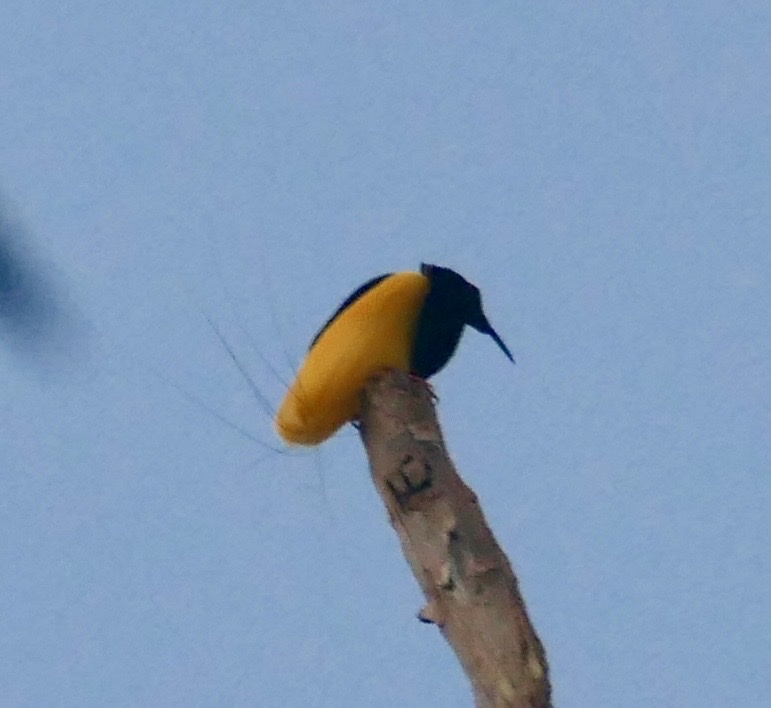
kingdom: Animalia
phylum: Chordata
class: Aves
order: Passeriformes
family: Paradisaeidae
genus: Seleucidis
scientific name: Seleucidis melanoleucus
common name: Twelve-wired bird-of-paradise
